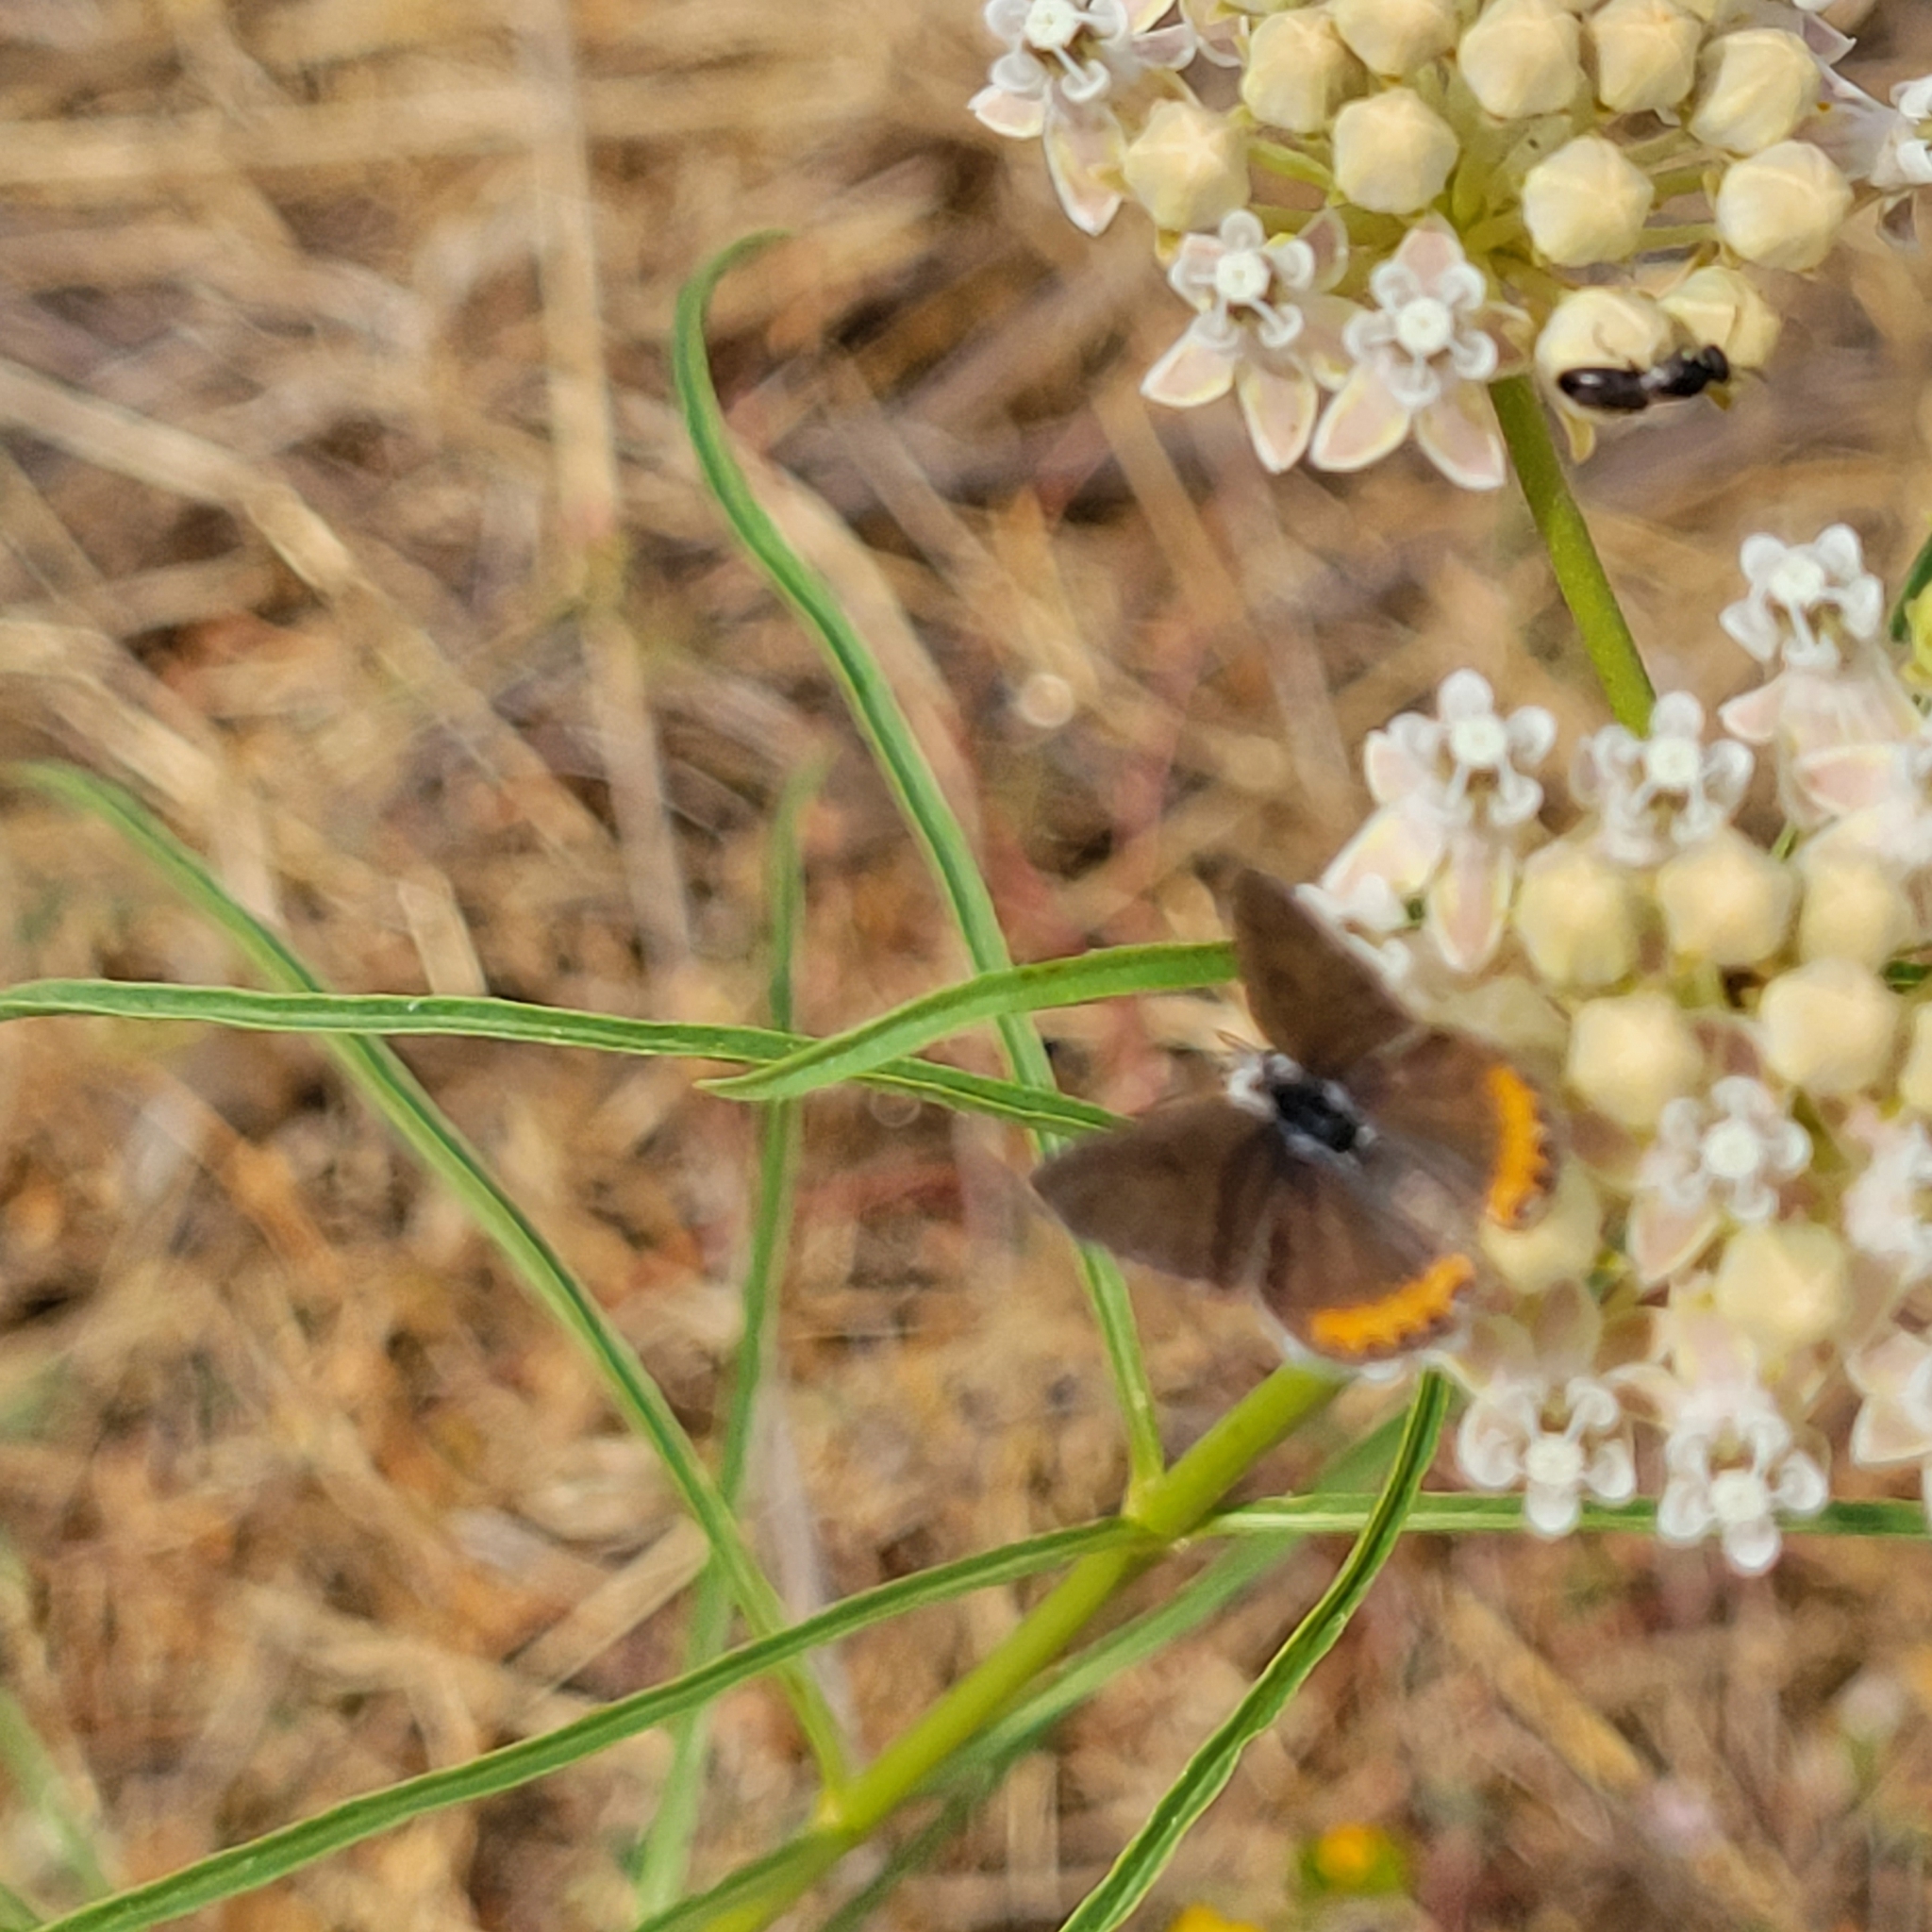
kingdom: Plantae
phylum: Tracheophyta
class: Magnoliopsida
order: Gentianales
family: Apocynaceae
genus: Asclepias
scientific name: Asclepias fascicularis
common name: Mexican milkweed
